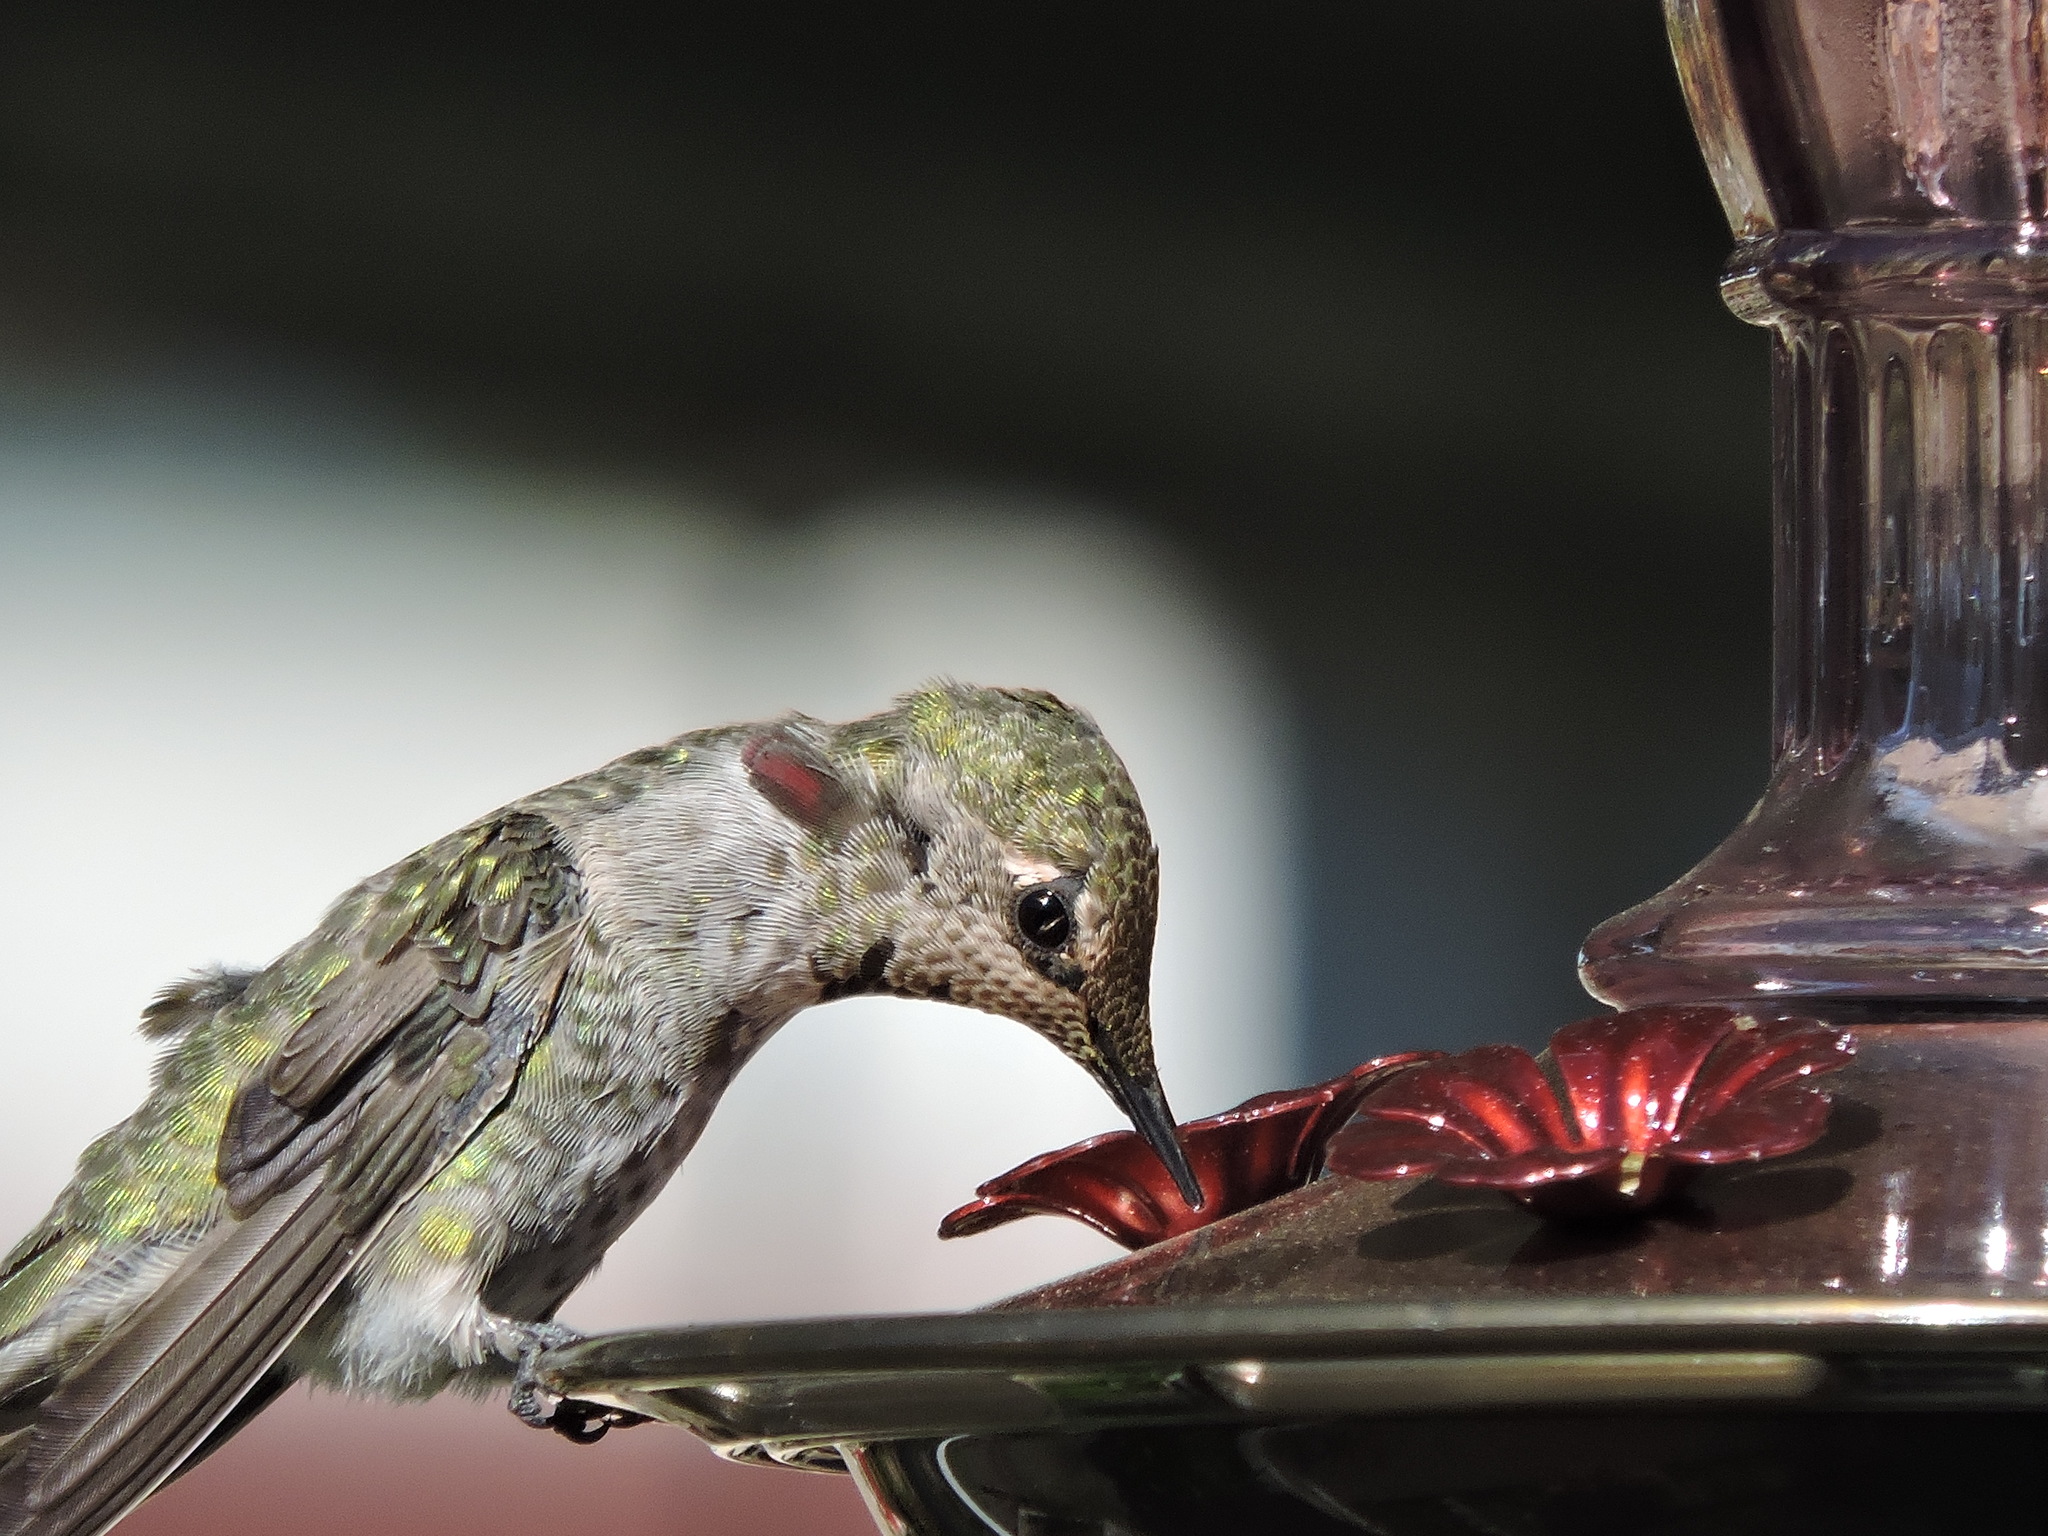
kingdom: Animalia
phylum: Chordata
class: Aves
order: Apodiformes
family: Trochilidae
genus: Calypte
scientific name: Calypte anna
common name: Anna's hummingbird
